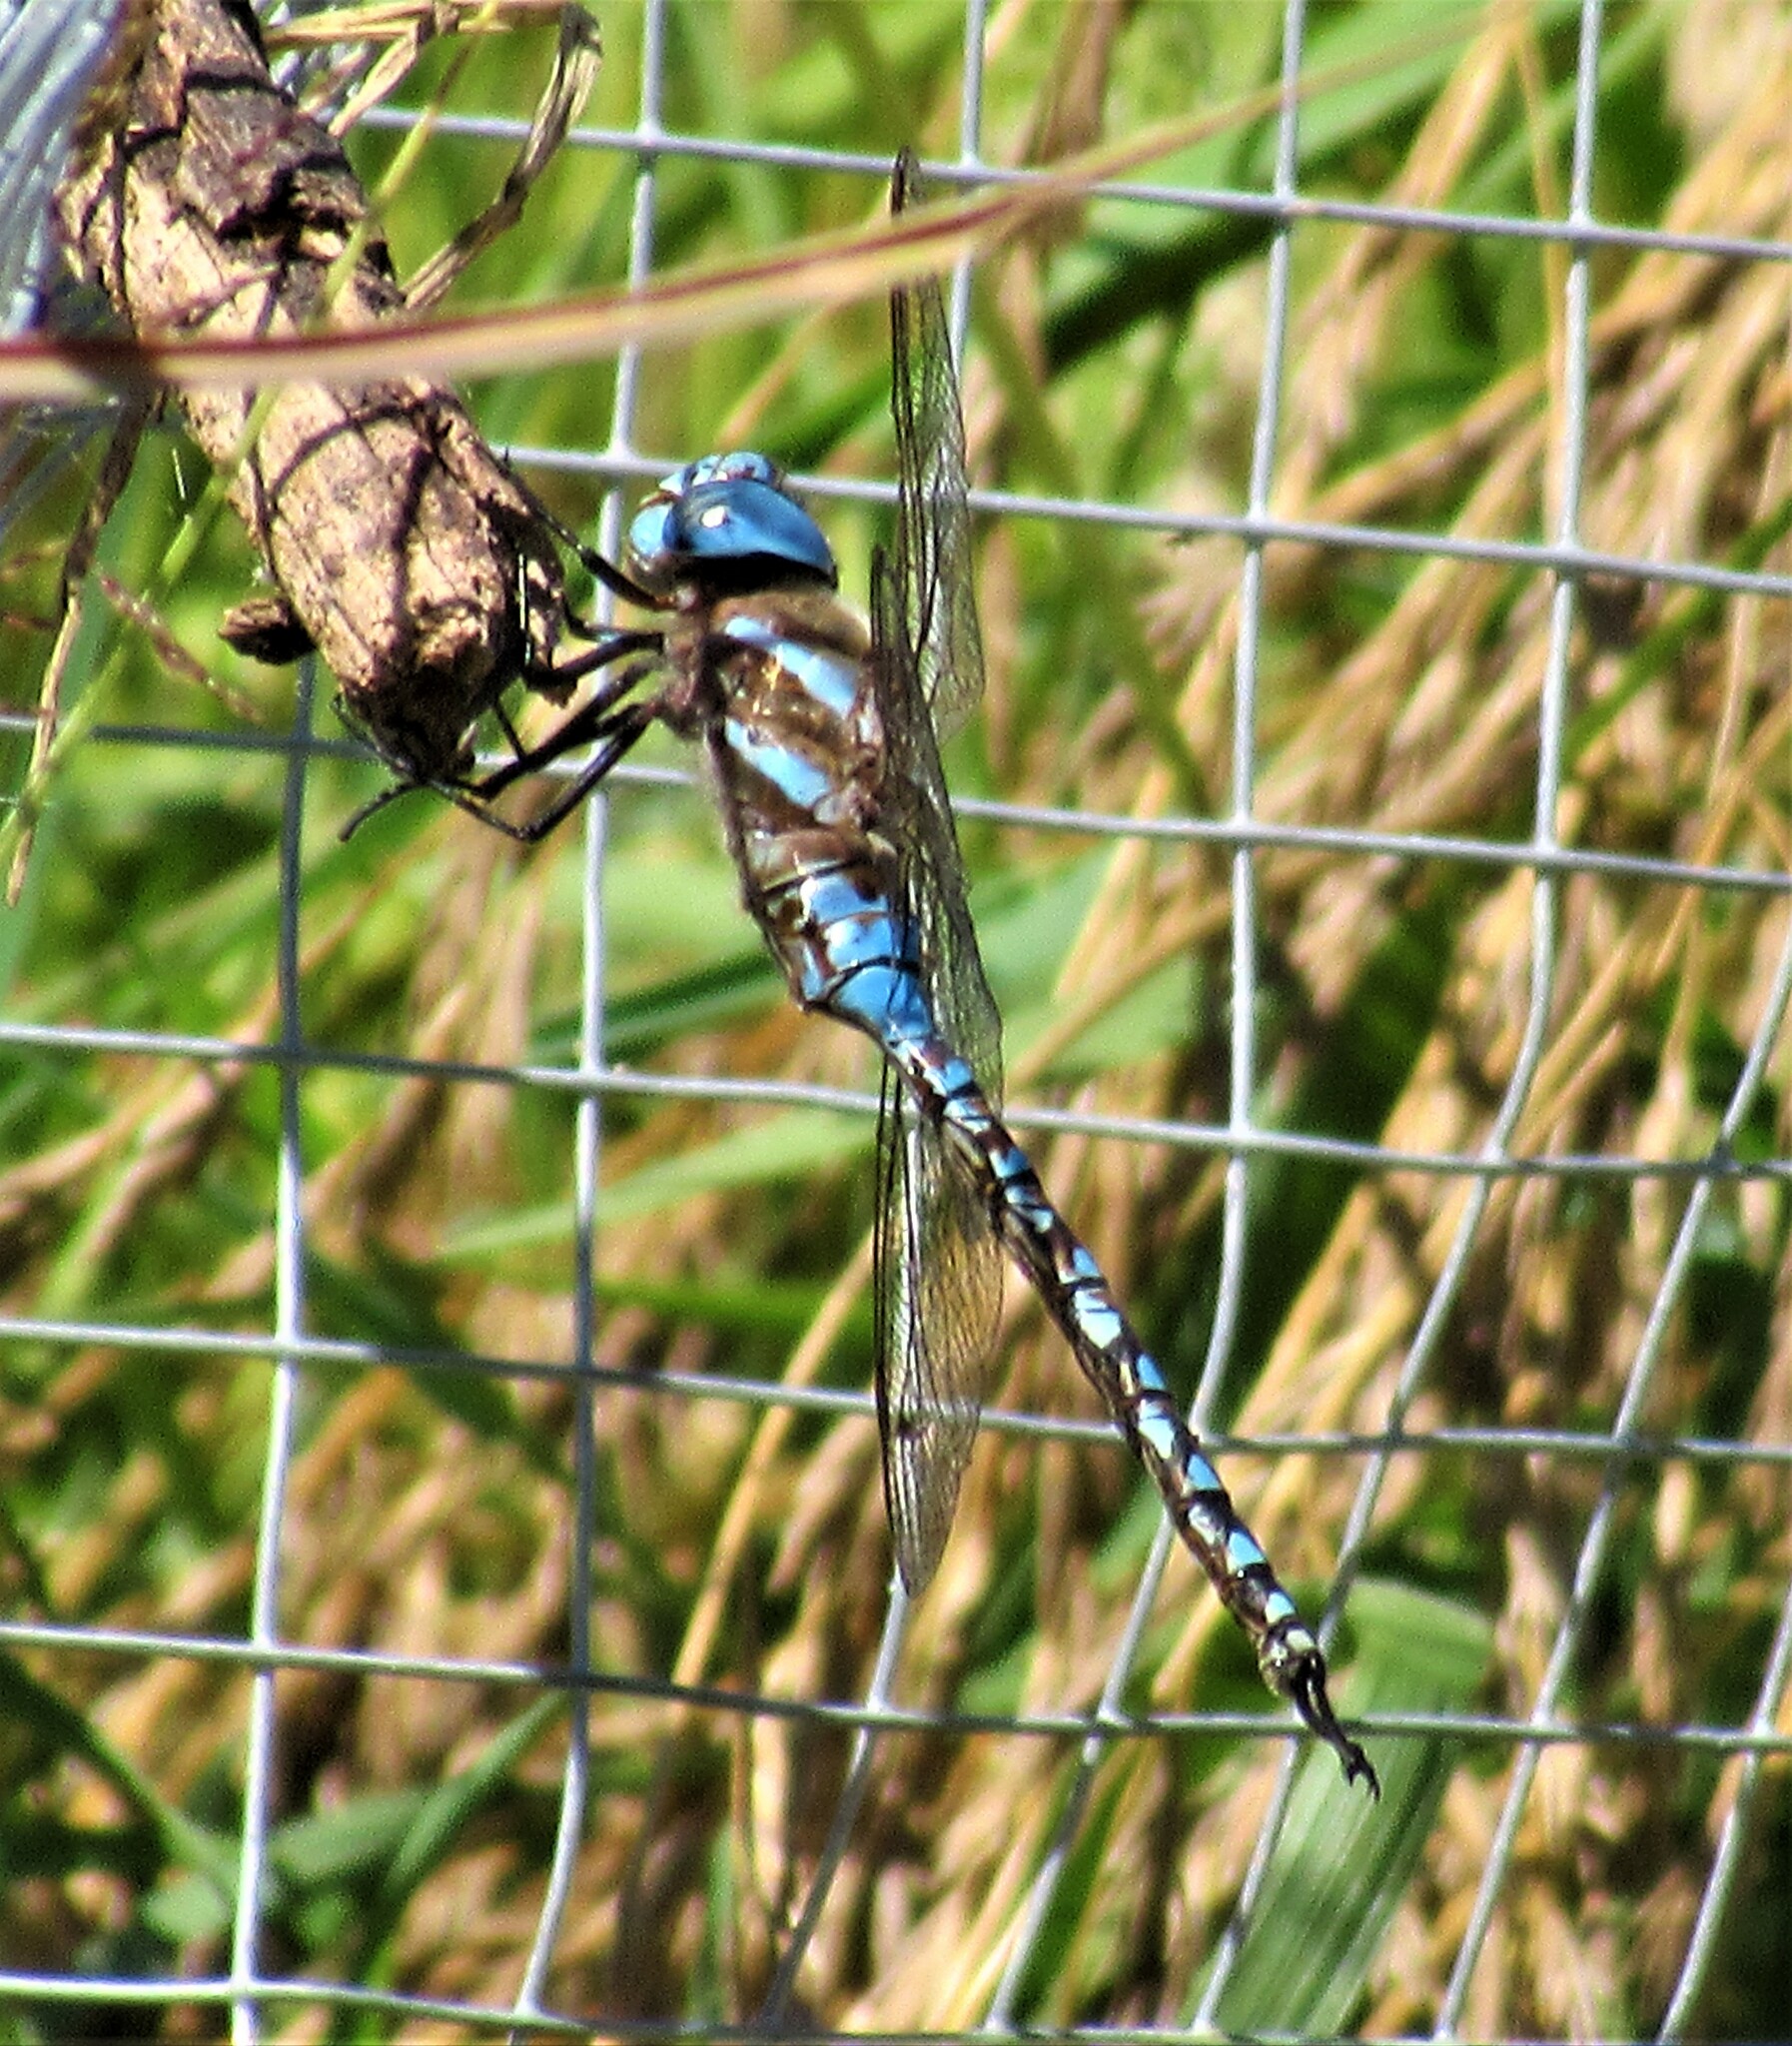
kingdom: Animalia
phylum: Arthropoda
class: Insecta
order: Odonata
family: Aeshnidae
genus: Rhionaeschna
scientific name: Rhionaeschna multicolor
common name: Blue-eyed darner
